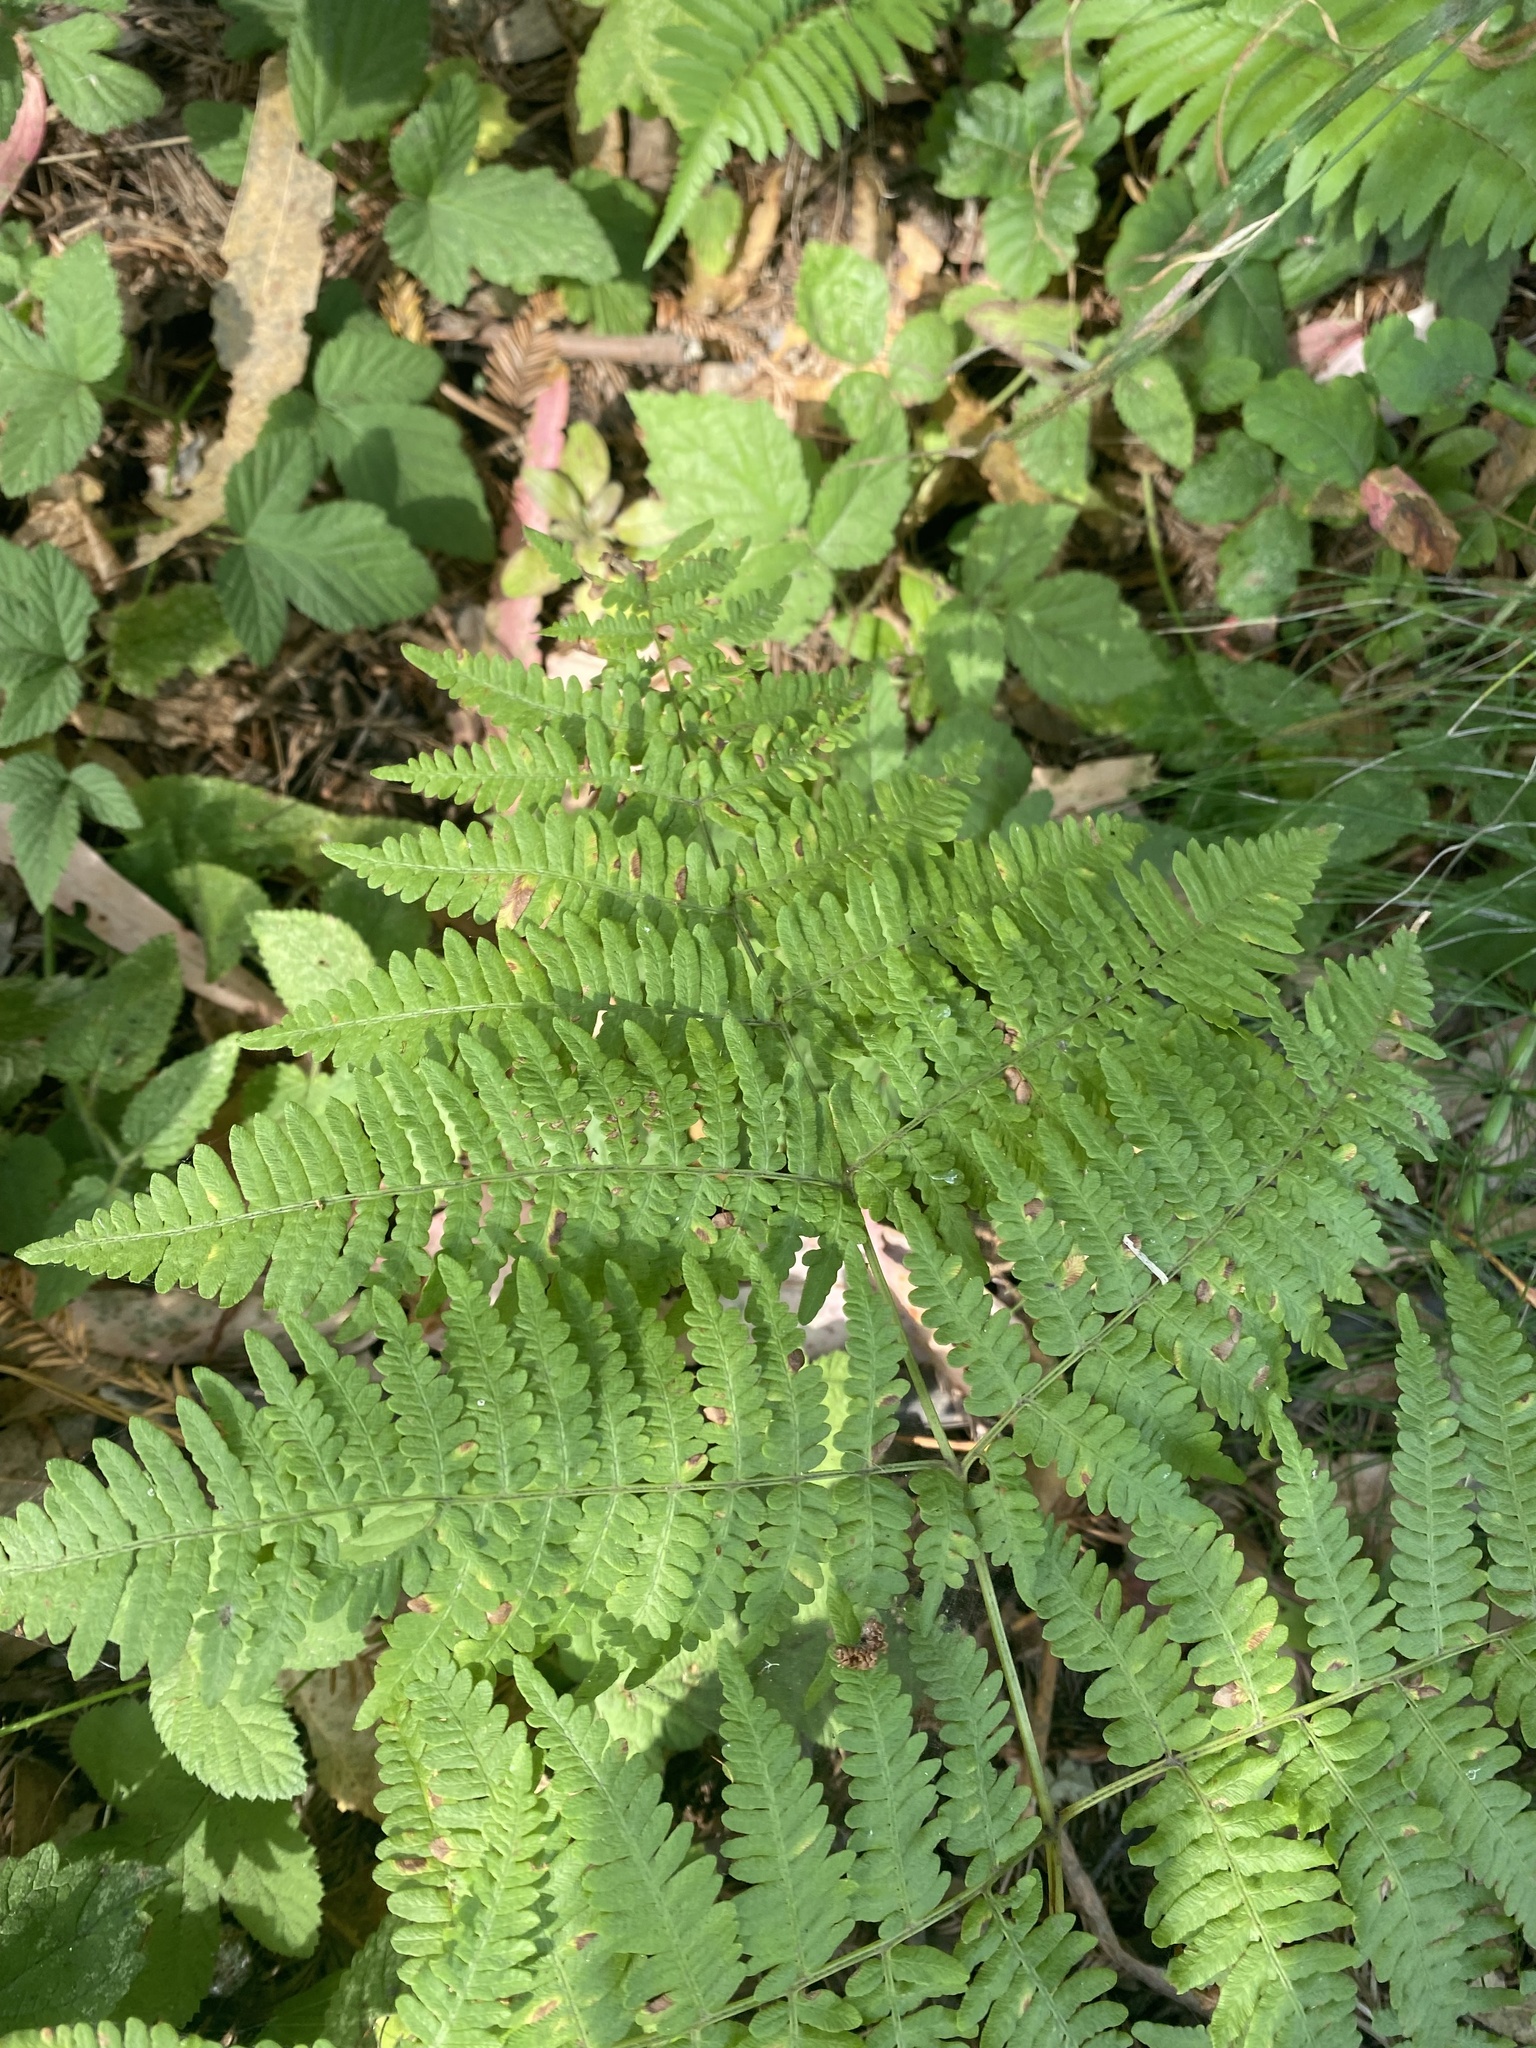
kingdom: Plantae
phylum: Tracheophyta
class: Polypodiopsida
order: Polypodiales
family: Dennstaedtiaceae
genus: Pteridium
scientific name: Pteridium aquilinum
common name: Bracken
